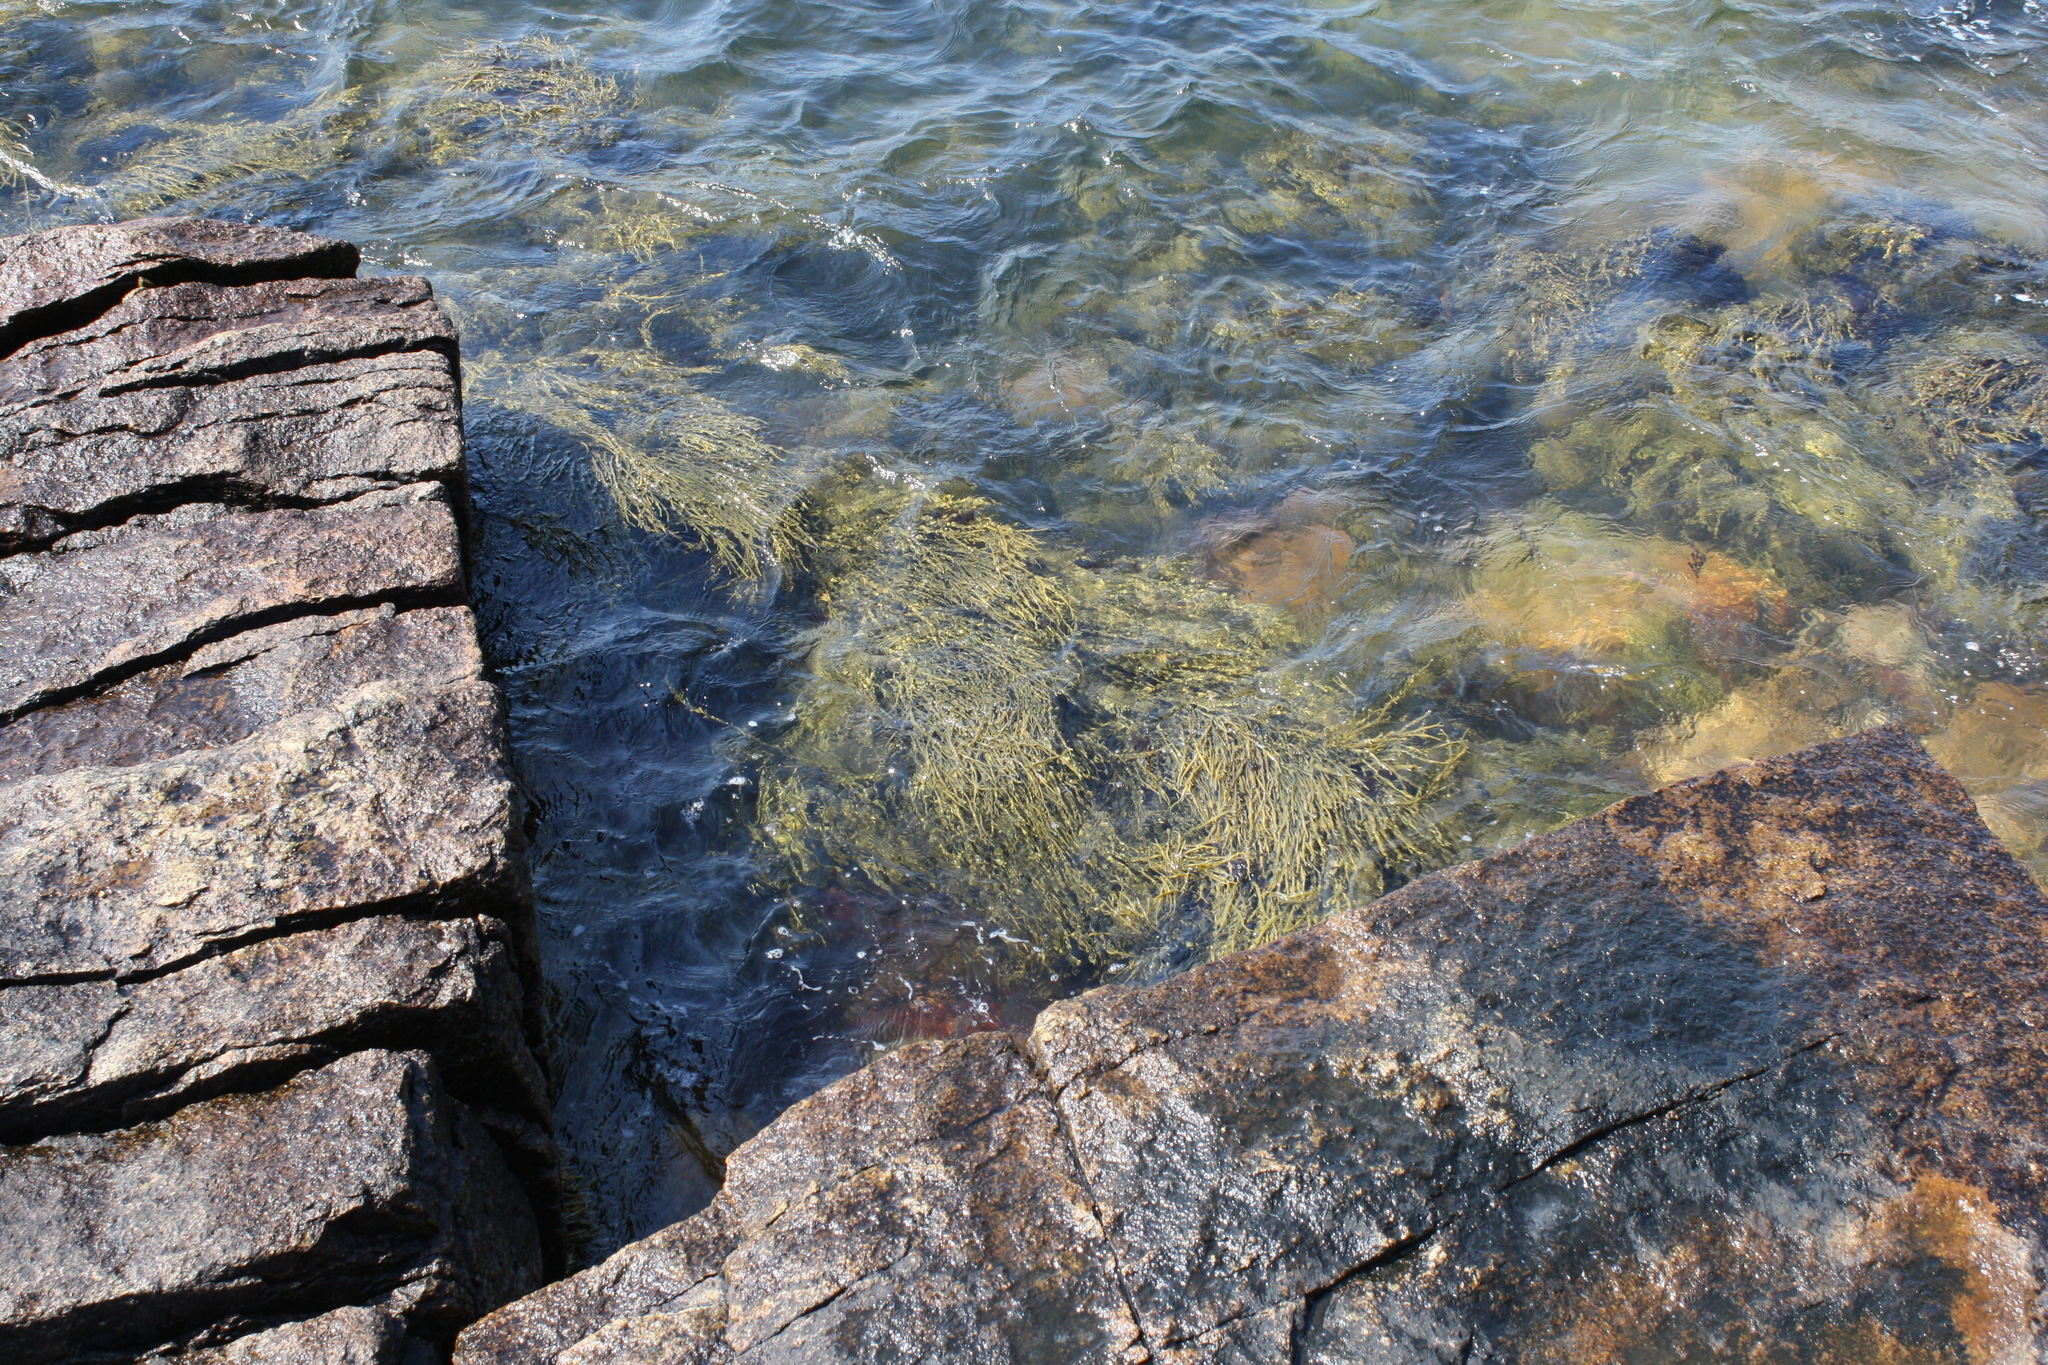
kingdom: Chromista
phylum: Ochrophyta
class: Phaeophyceae
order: Fucales
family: Fucaceae
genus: Ascophyllum
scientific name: Ascophyllum nodosum
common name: Knotted wrack
